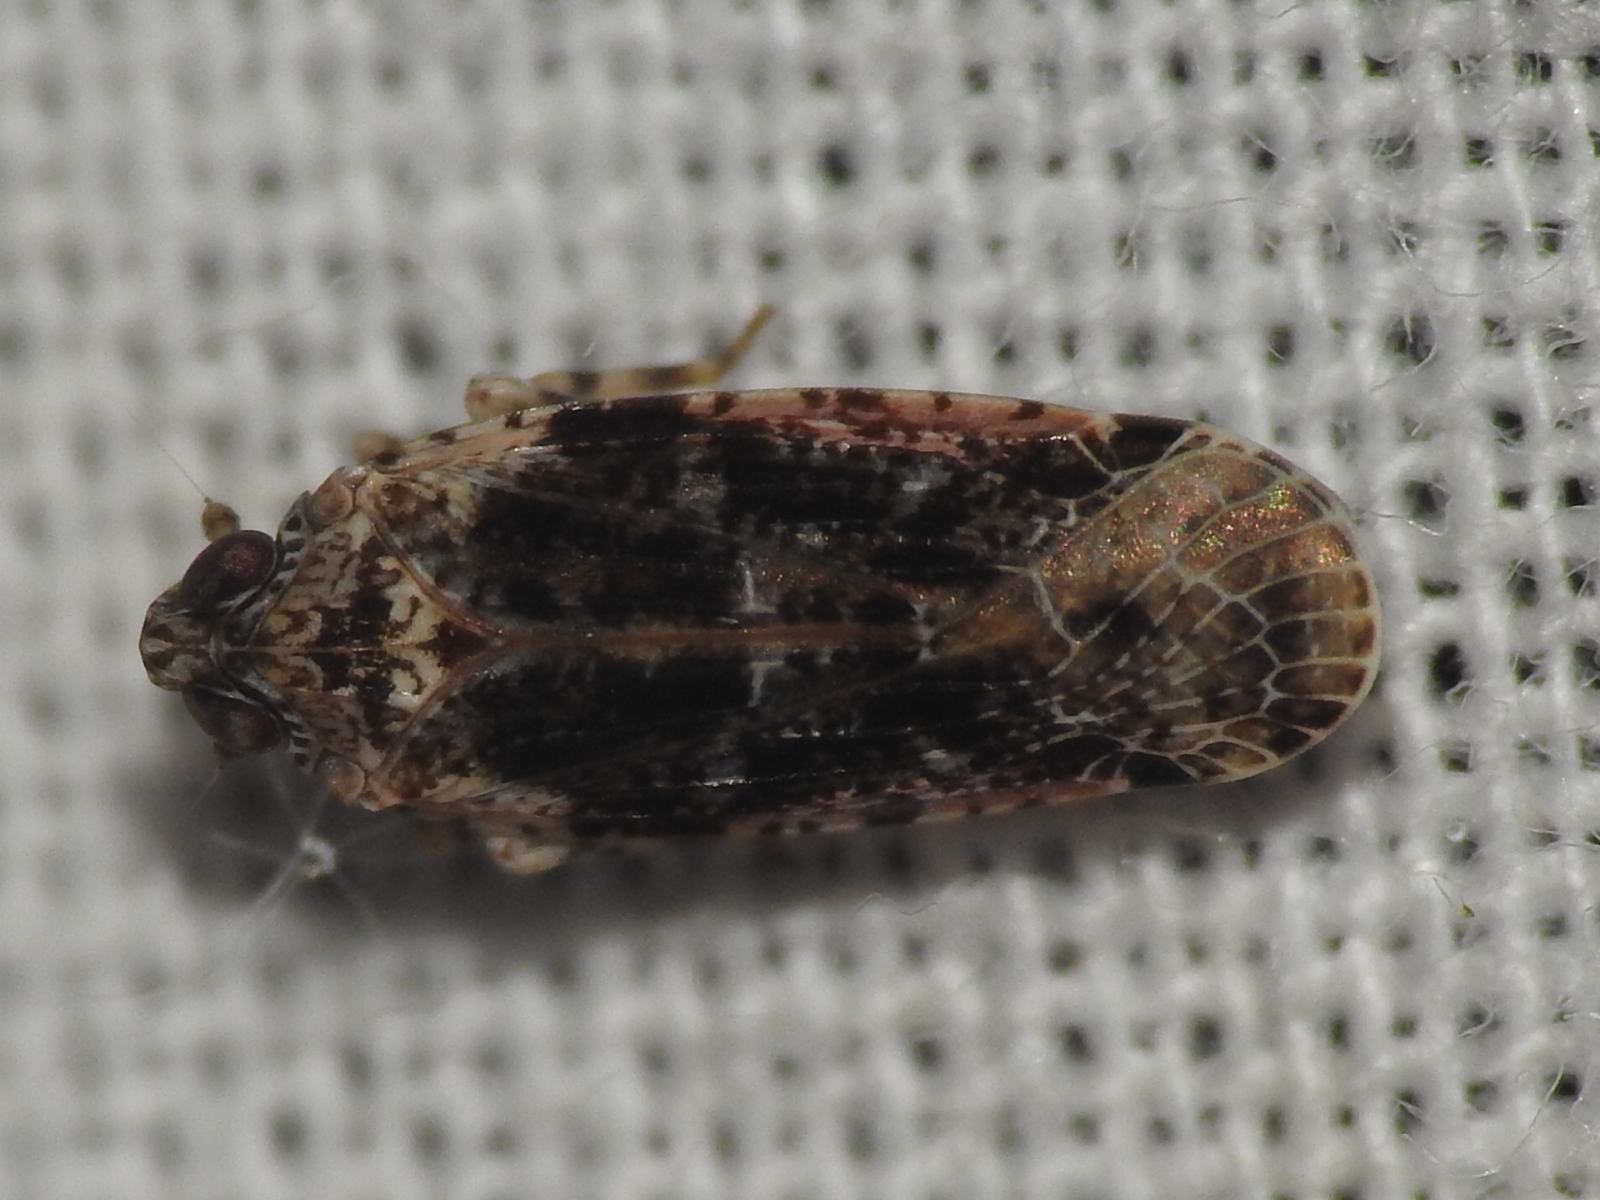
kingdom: Animalia
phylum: Arthropoda
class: Insecta
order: Hemiptera
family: Achilidae
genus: Catonia
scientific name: Catonia nava
